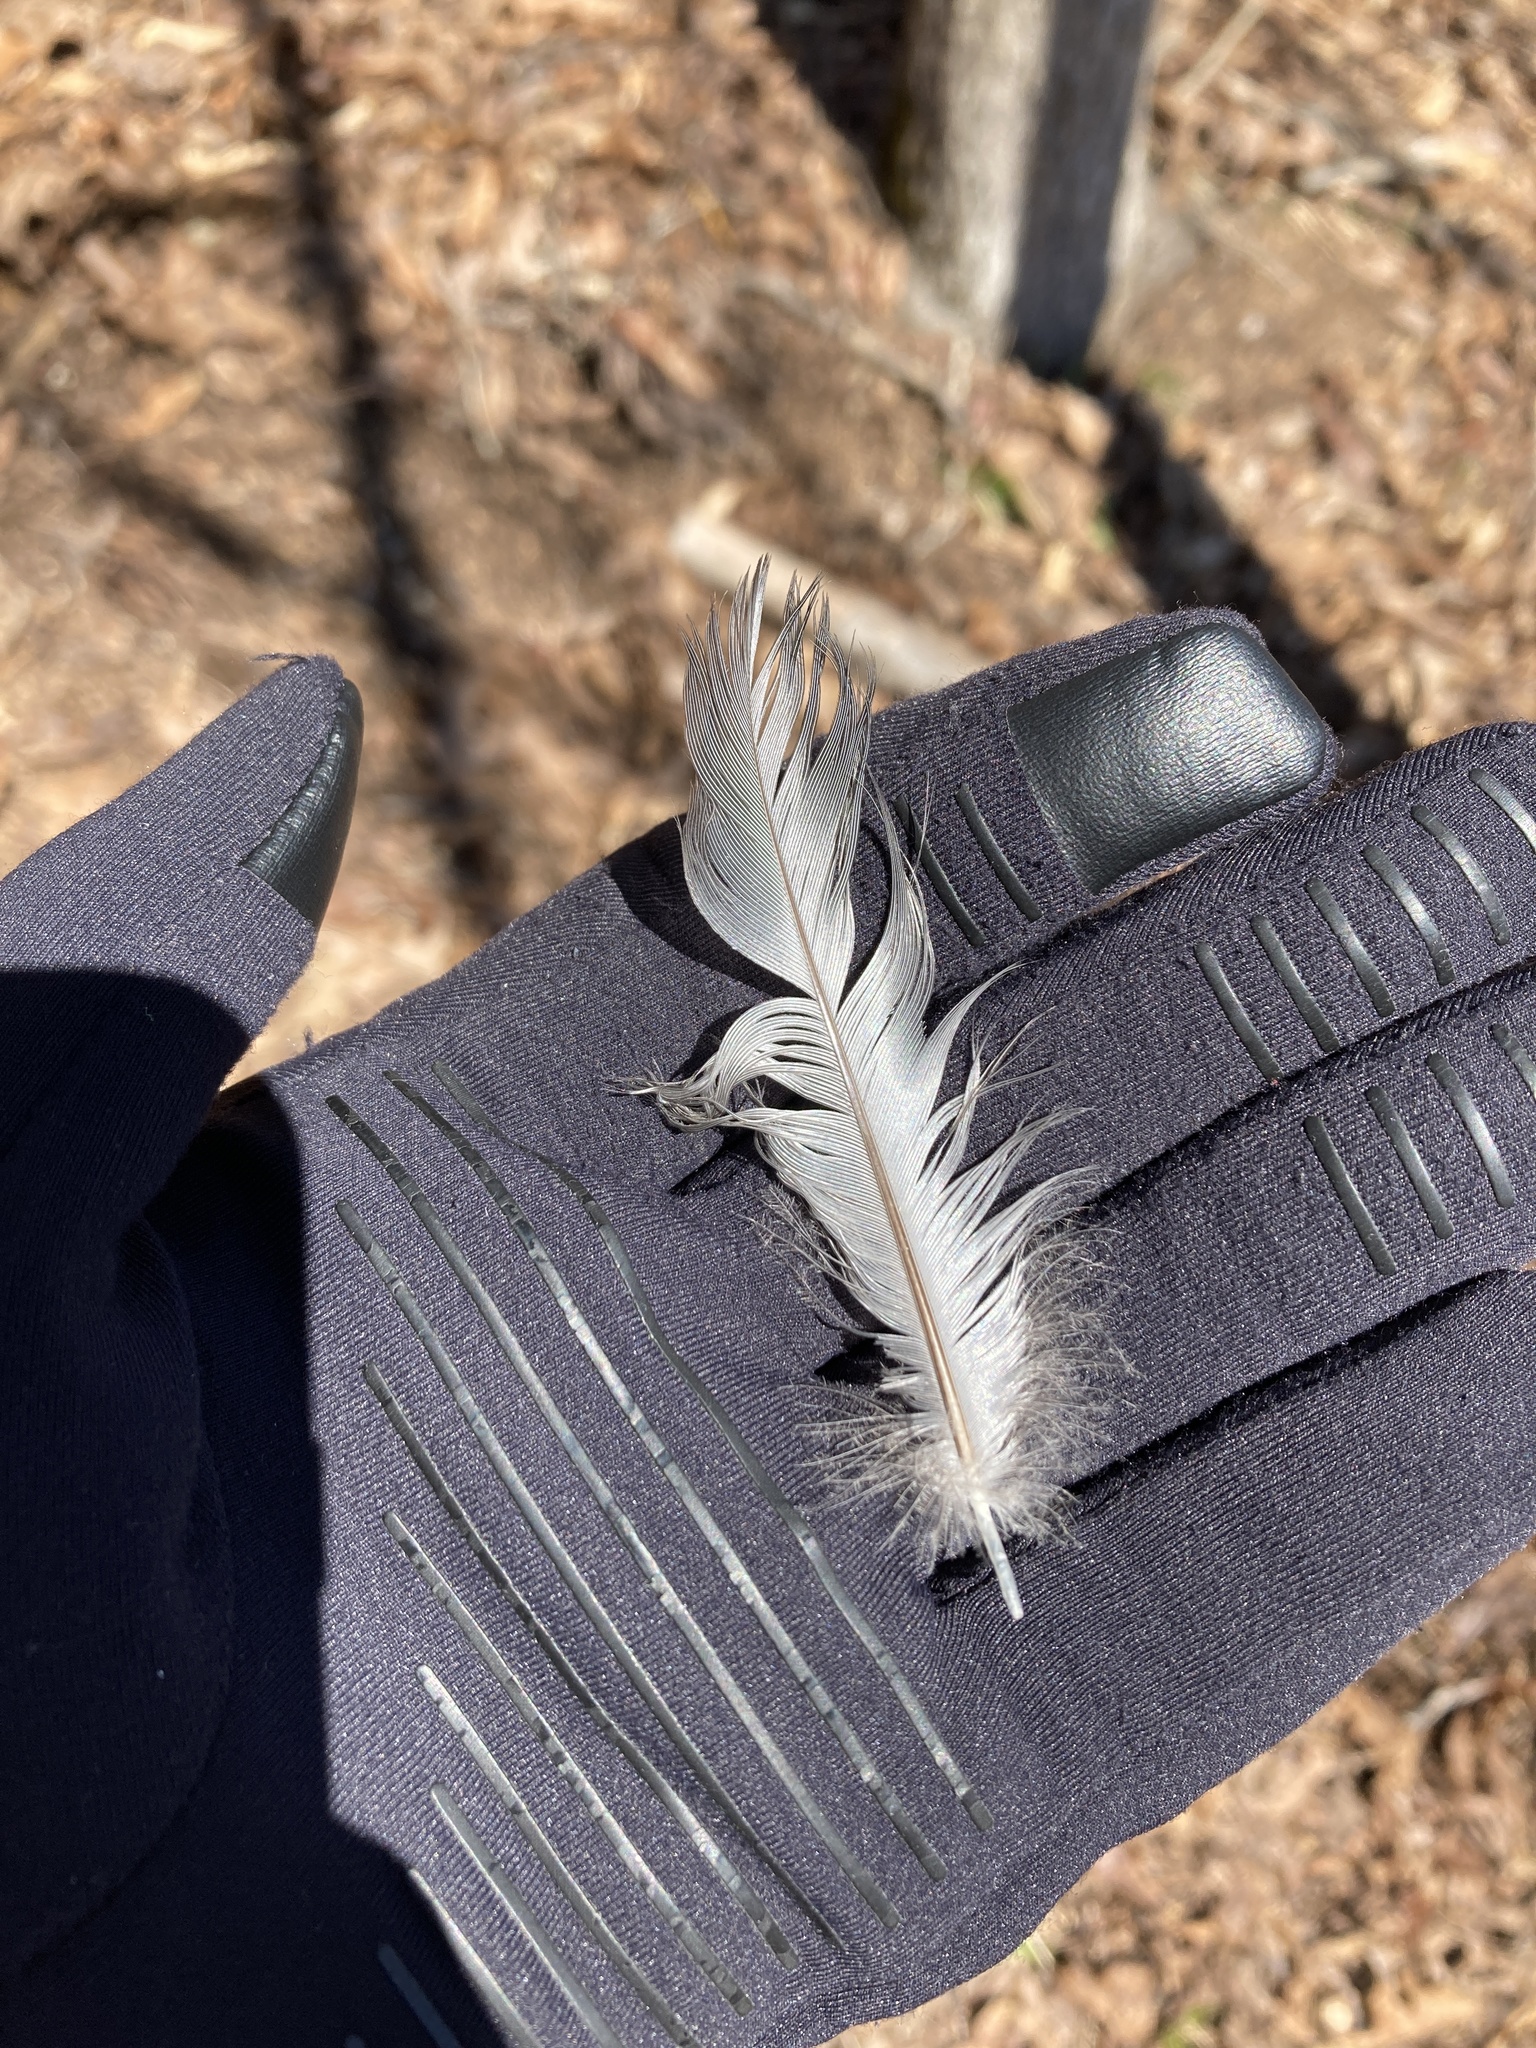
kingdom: Animalia
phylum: Chordata
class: Aves
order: Gruiformes
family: Rallidae
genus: Fulica
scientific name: Fulica americana
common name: American coot
